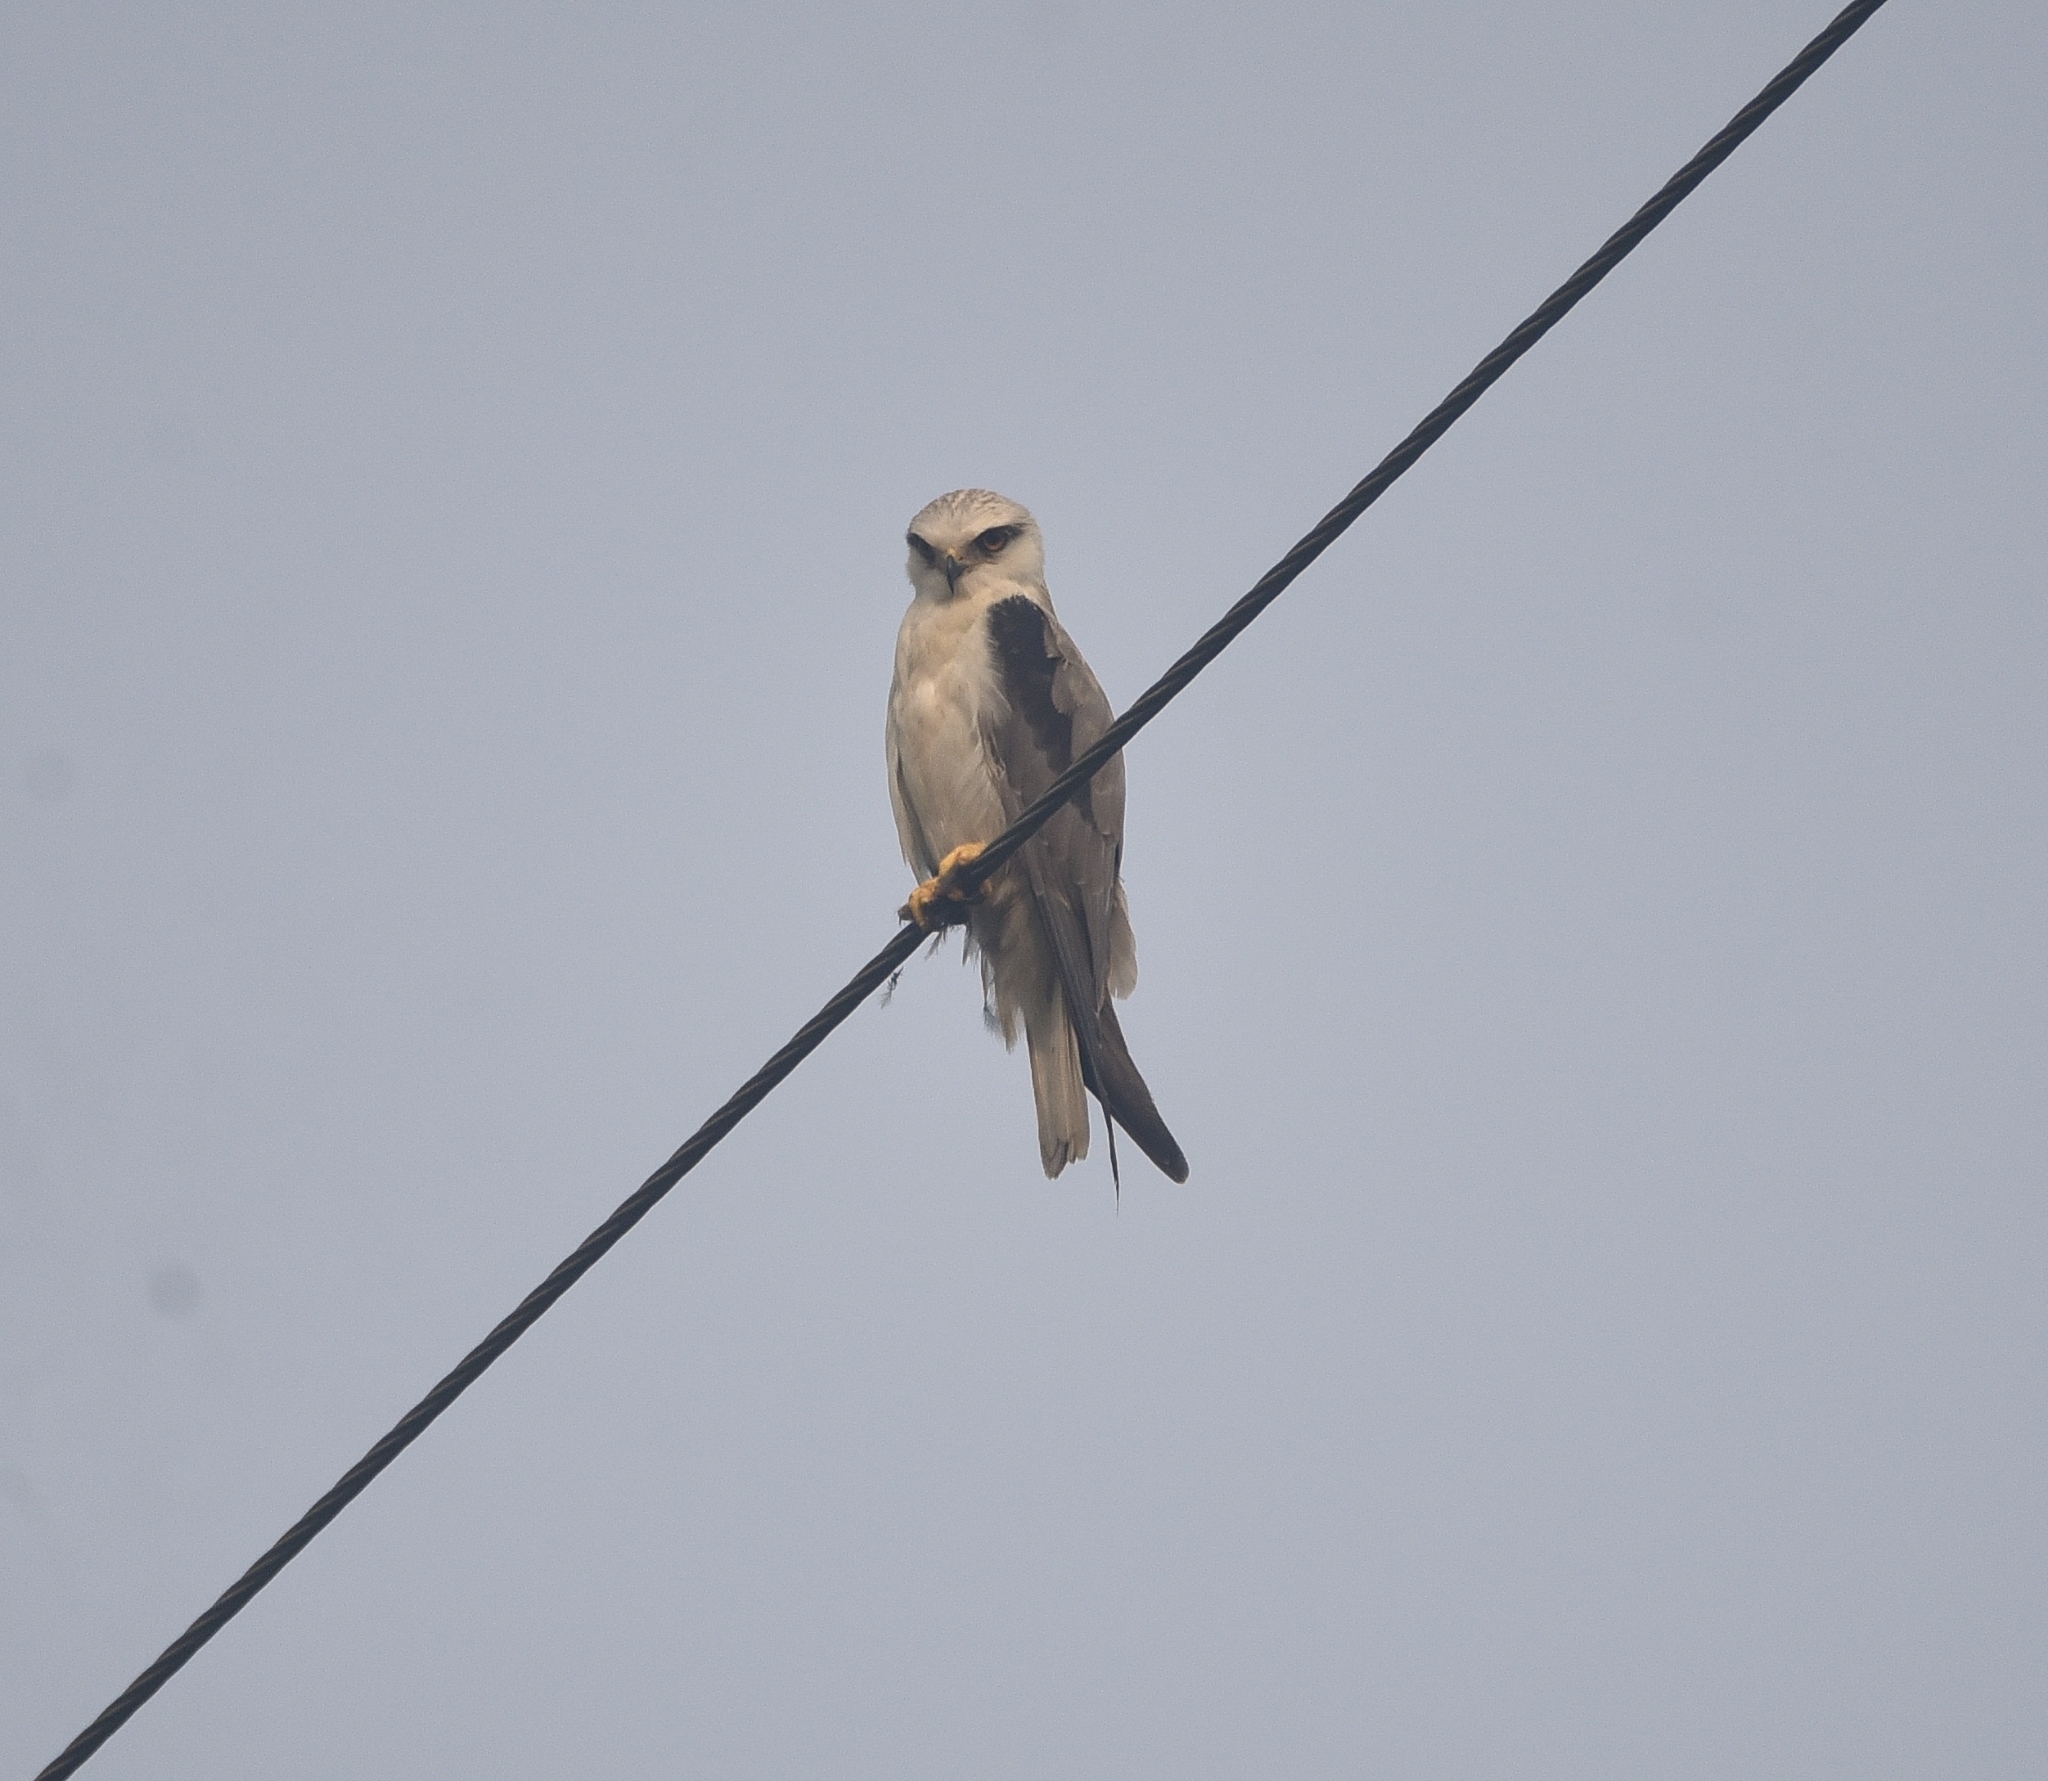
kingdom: Animalia
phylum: Chordata
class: Aves
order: Accipitriformes
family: Accipitridae
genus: Elanus
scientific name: Elanus caeruleus
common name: Black-winged kite
